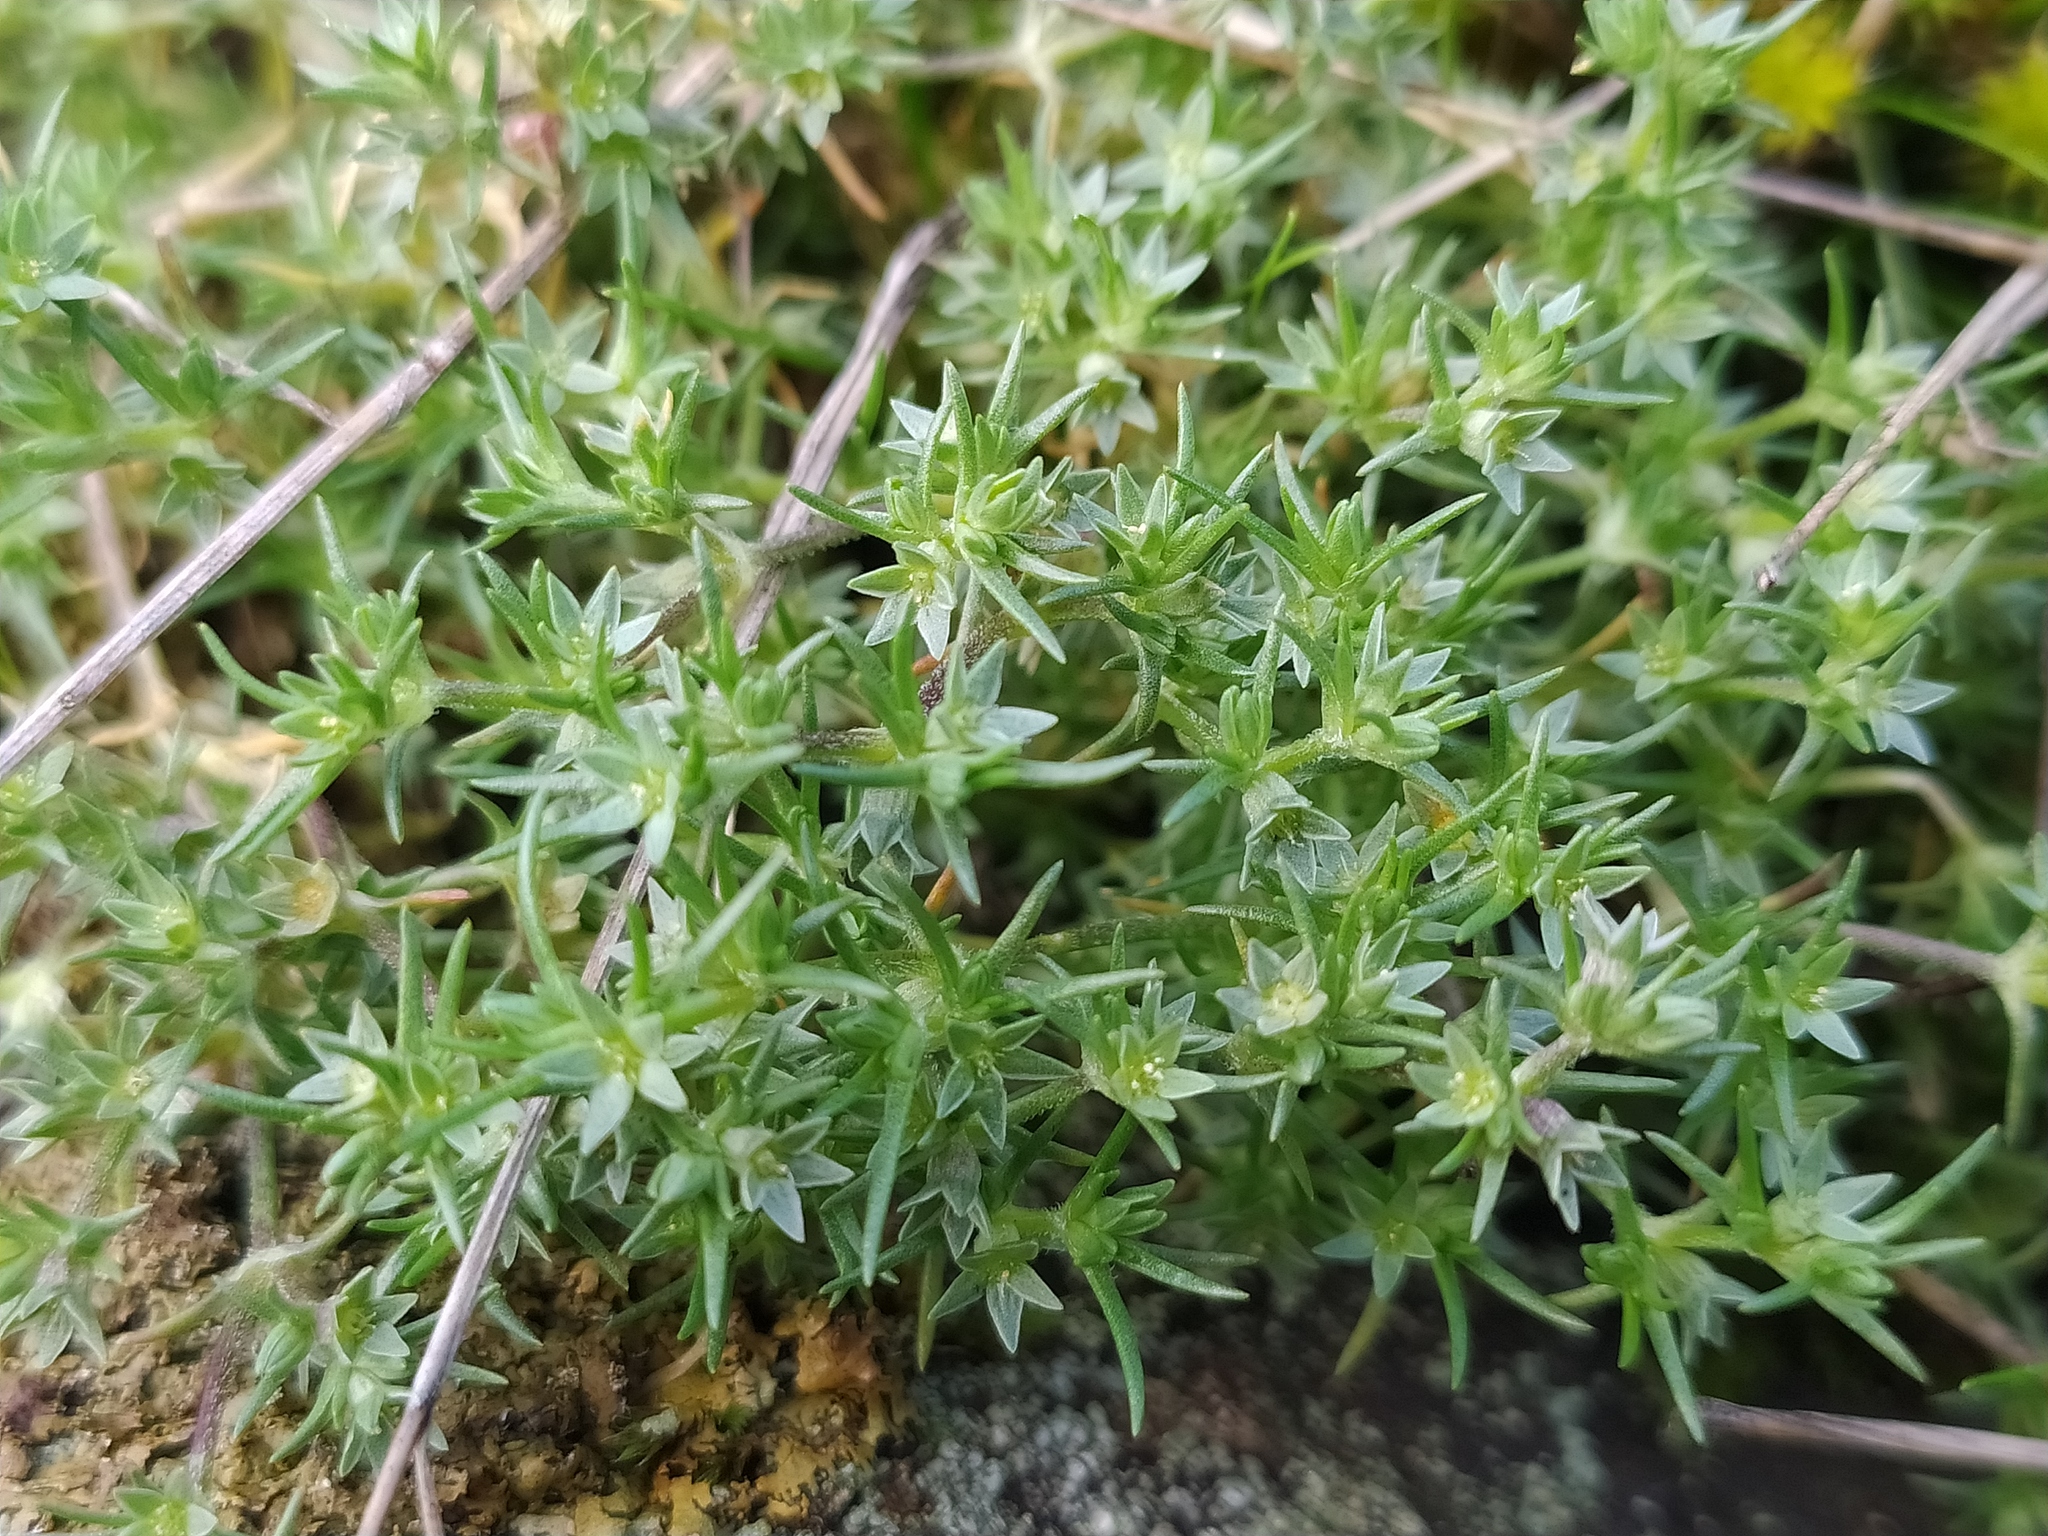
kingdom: Plantae
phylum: Tracheophyta
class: Magnoliopsida
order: Caryophyllales
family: Caryophyllaceae
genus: Scleranthus
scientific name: Scleranthus annuus
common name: Annual knawel
